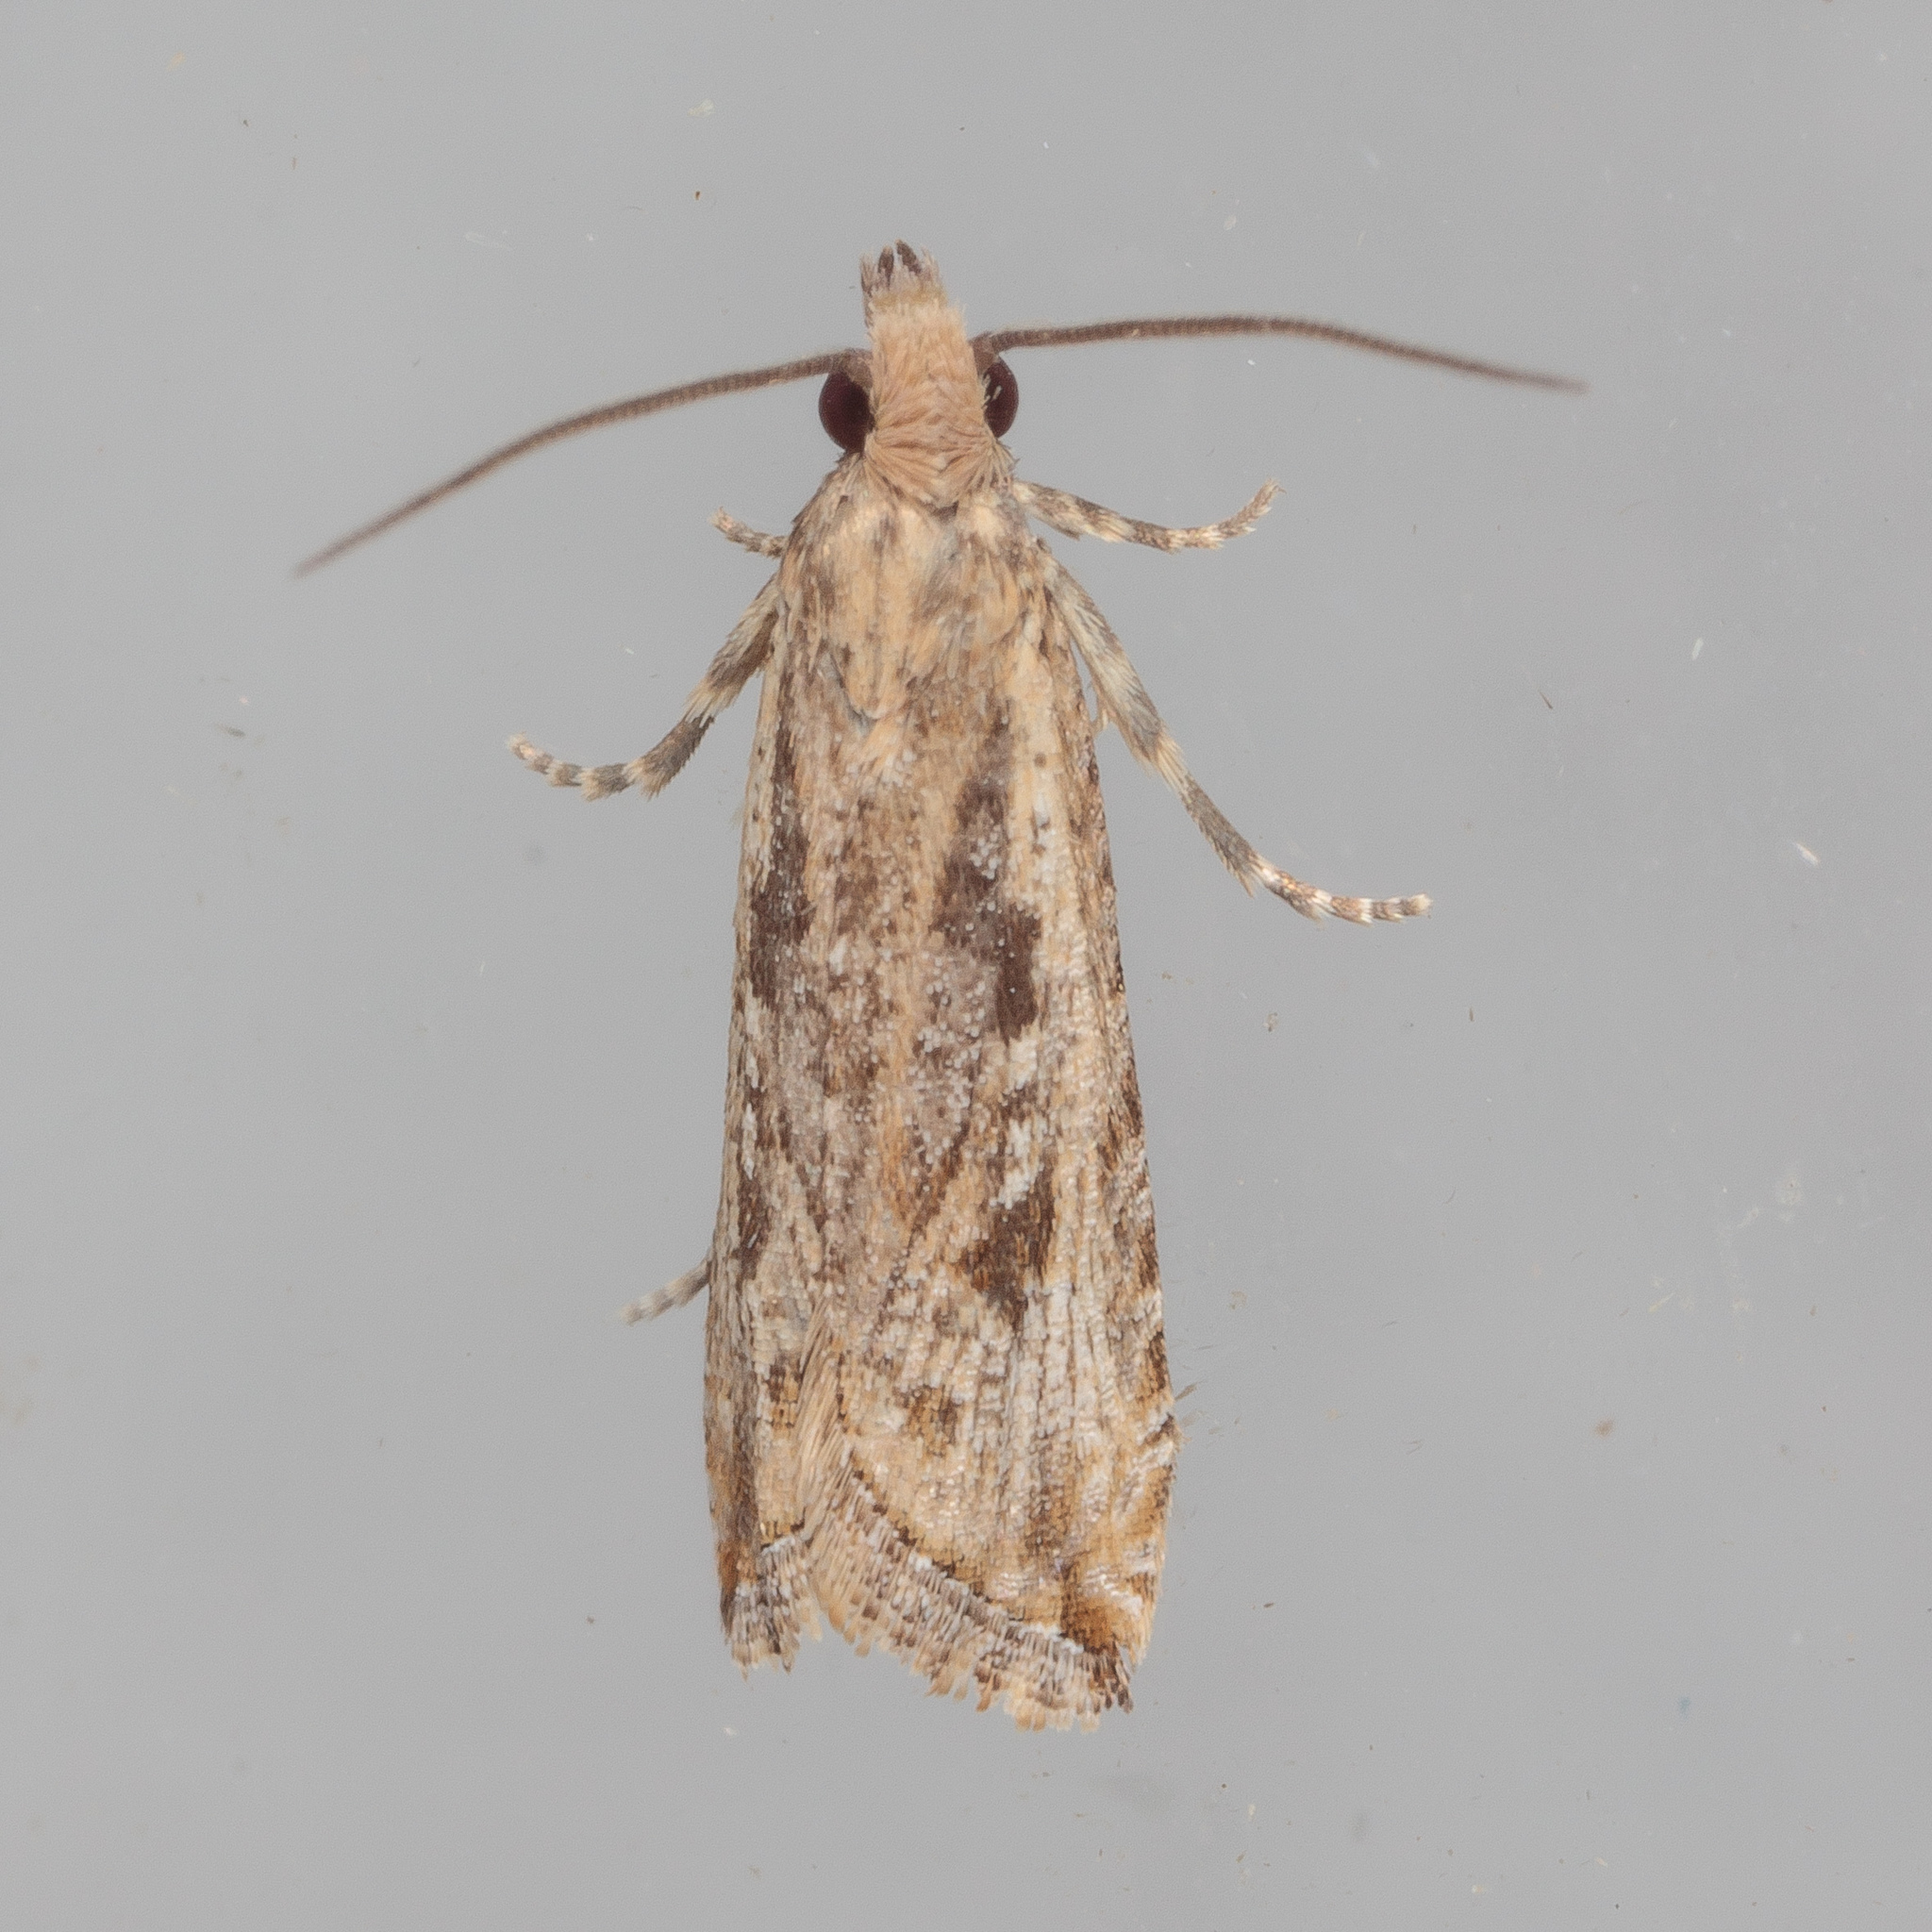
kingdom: Animalia
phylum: Arthropoda
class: Insecta
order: Lepidoptera
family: Tortricidae
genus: Bactra
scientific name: Bactra verutana
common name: Javelin moth
